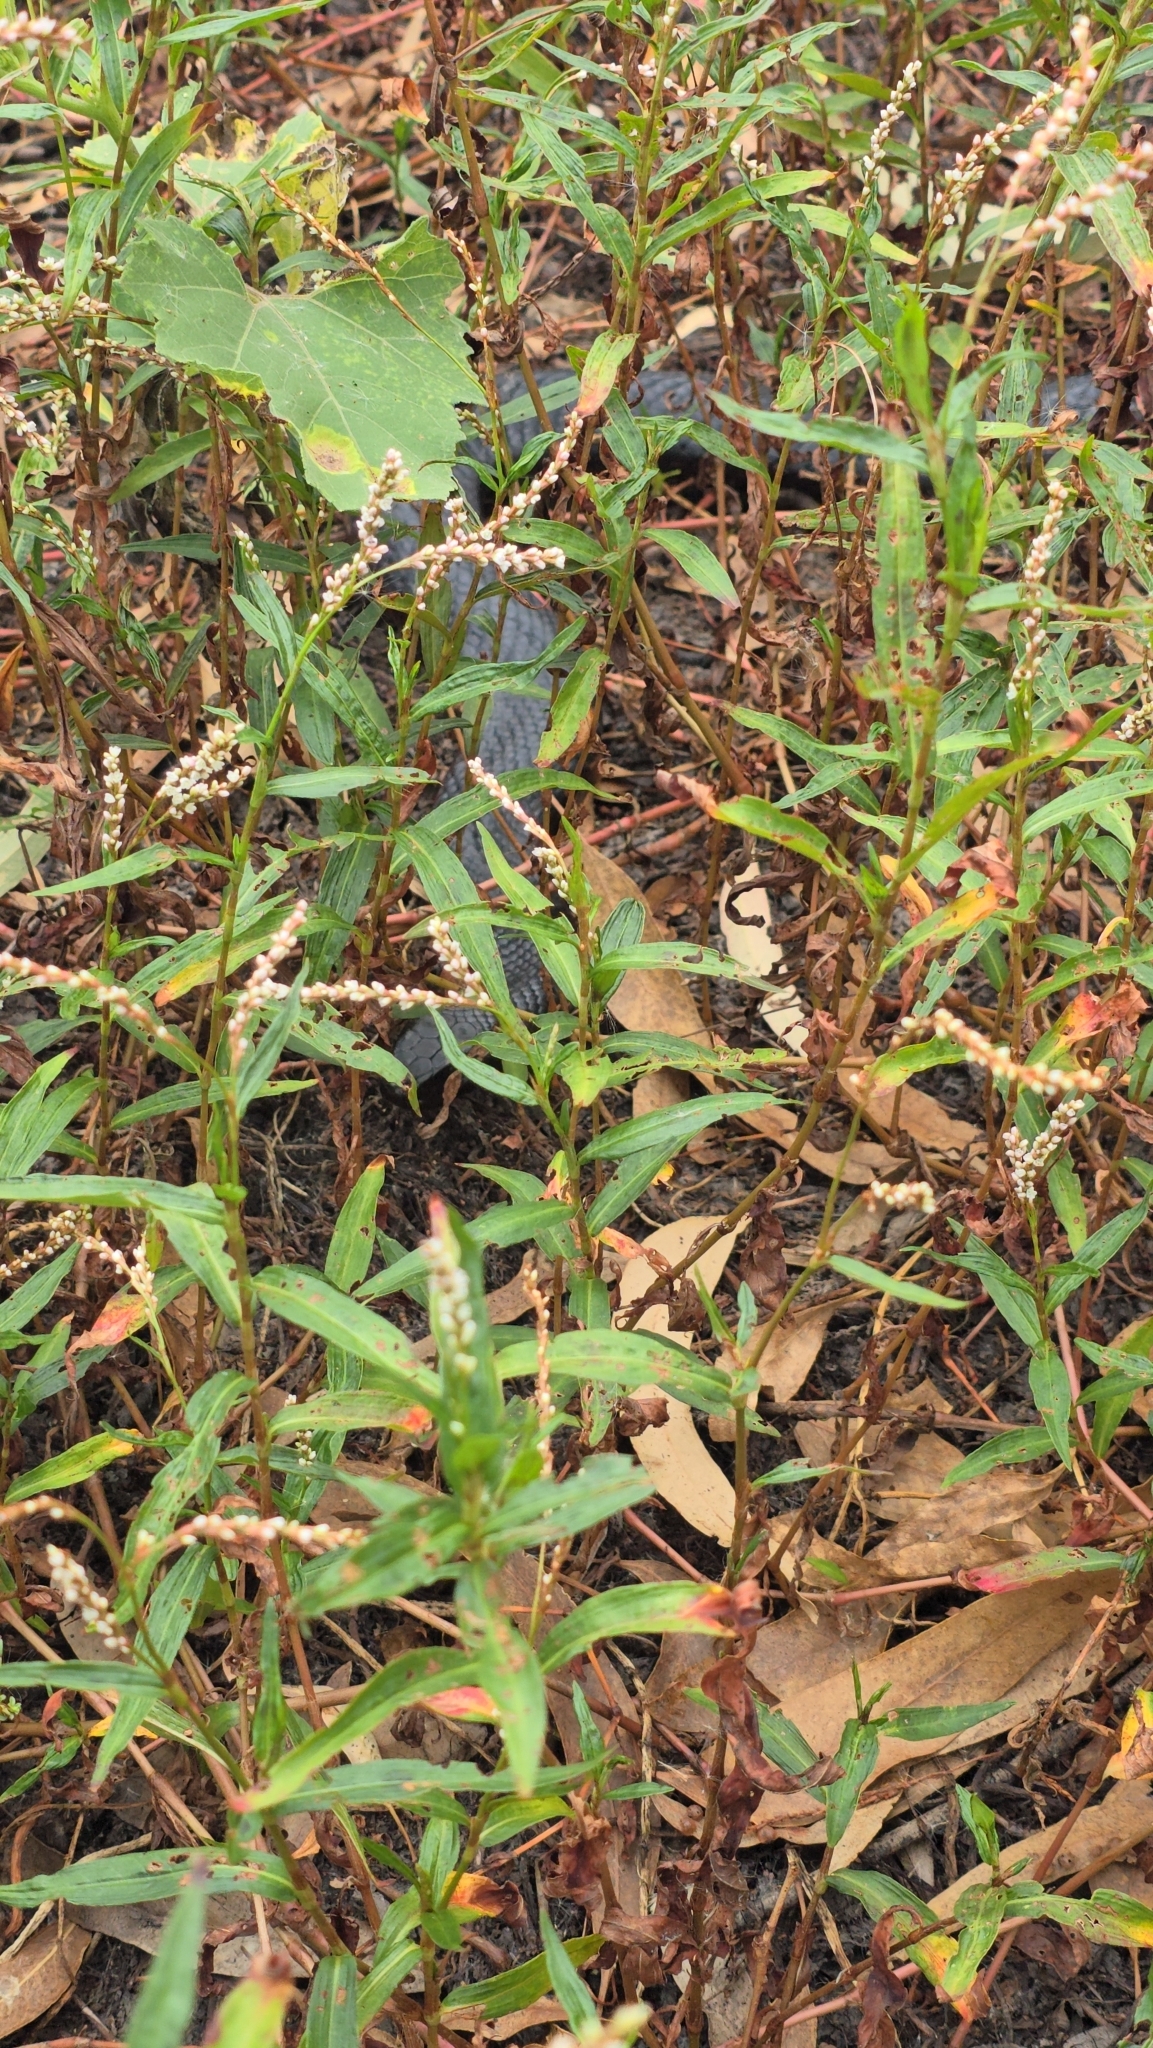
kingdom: Animalia
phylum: Chordata
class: Squamata
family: Elapidae
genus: Pseudechis
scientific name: Pseudechis porphyriacus
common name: Australian black snake
